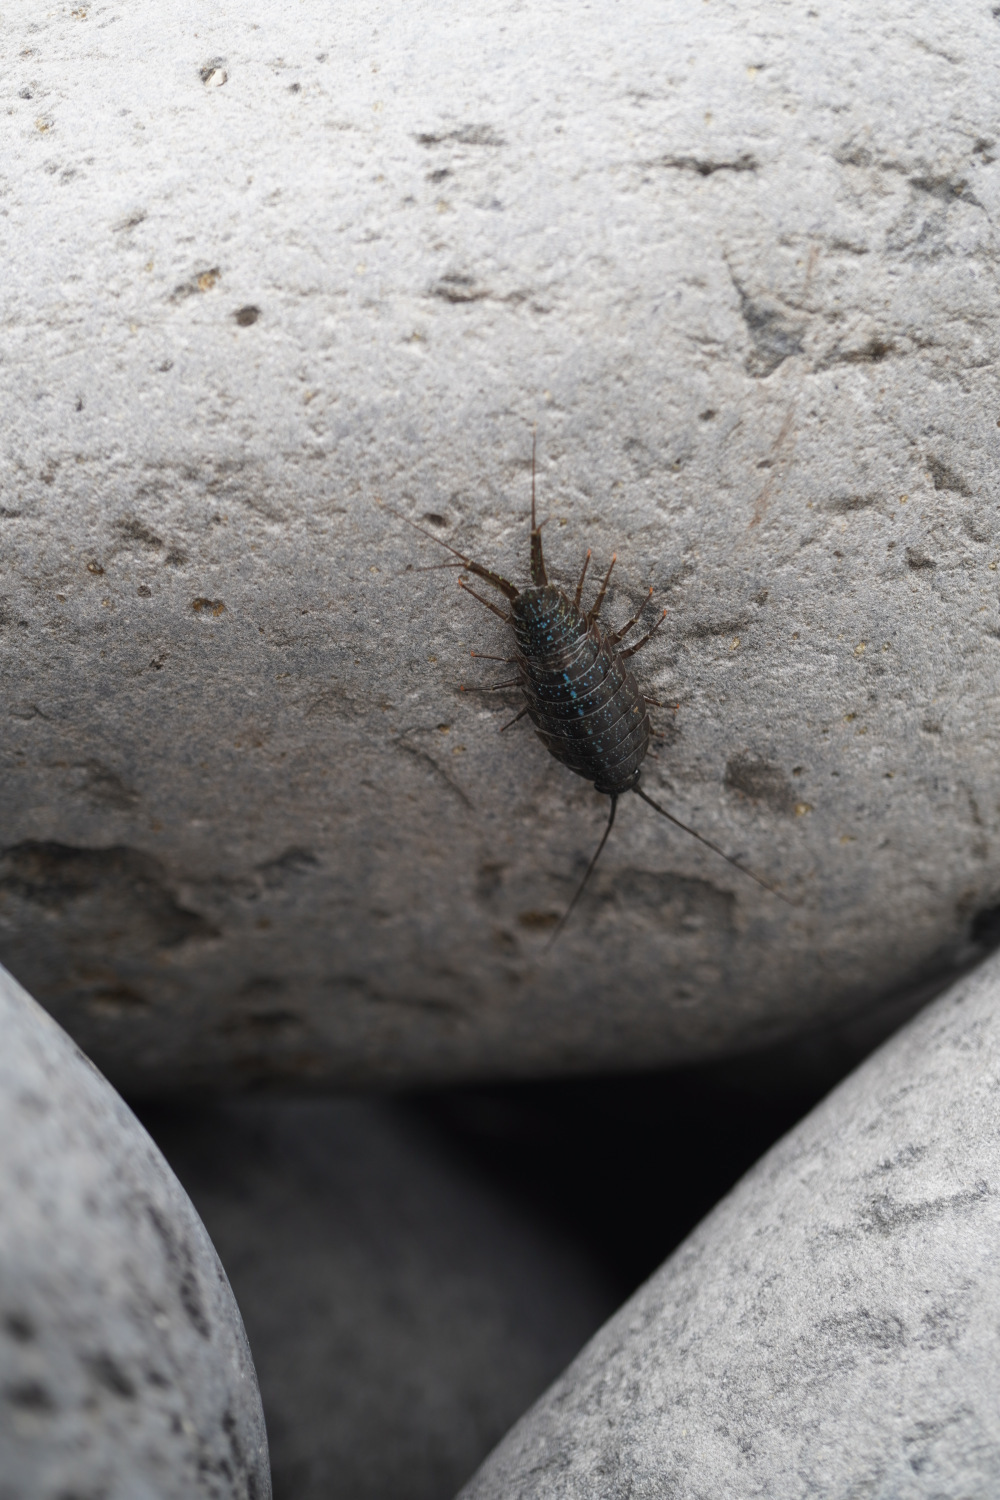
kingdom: Animalia
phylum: Arthropoda
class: Malacostraca
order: Isopoda
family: Ligiidae
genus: Ligia
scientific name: Ligia exotica
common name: Wharf roach
